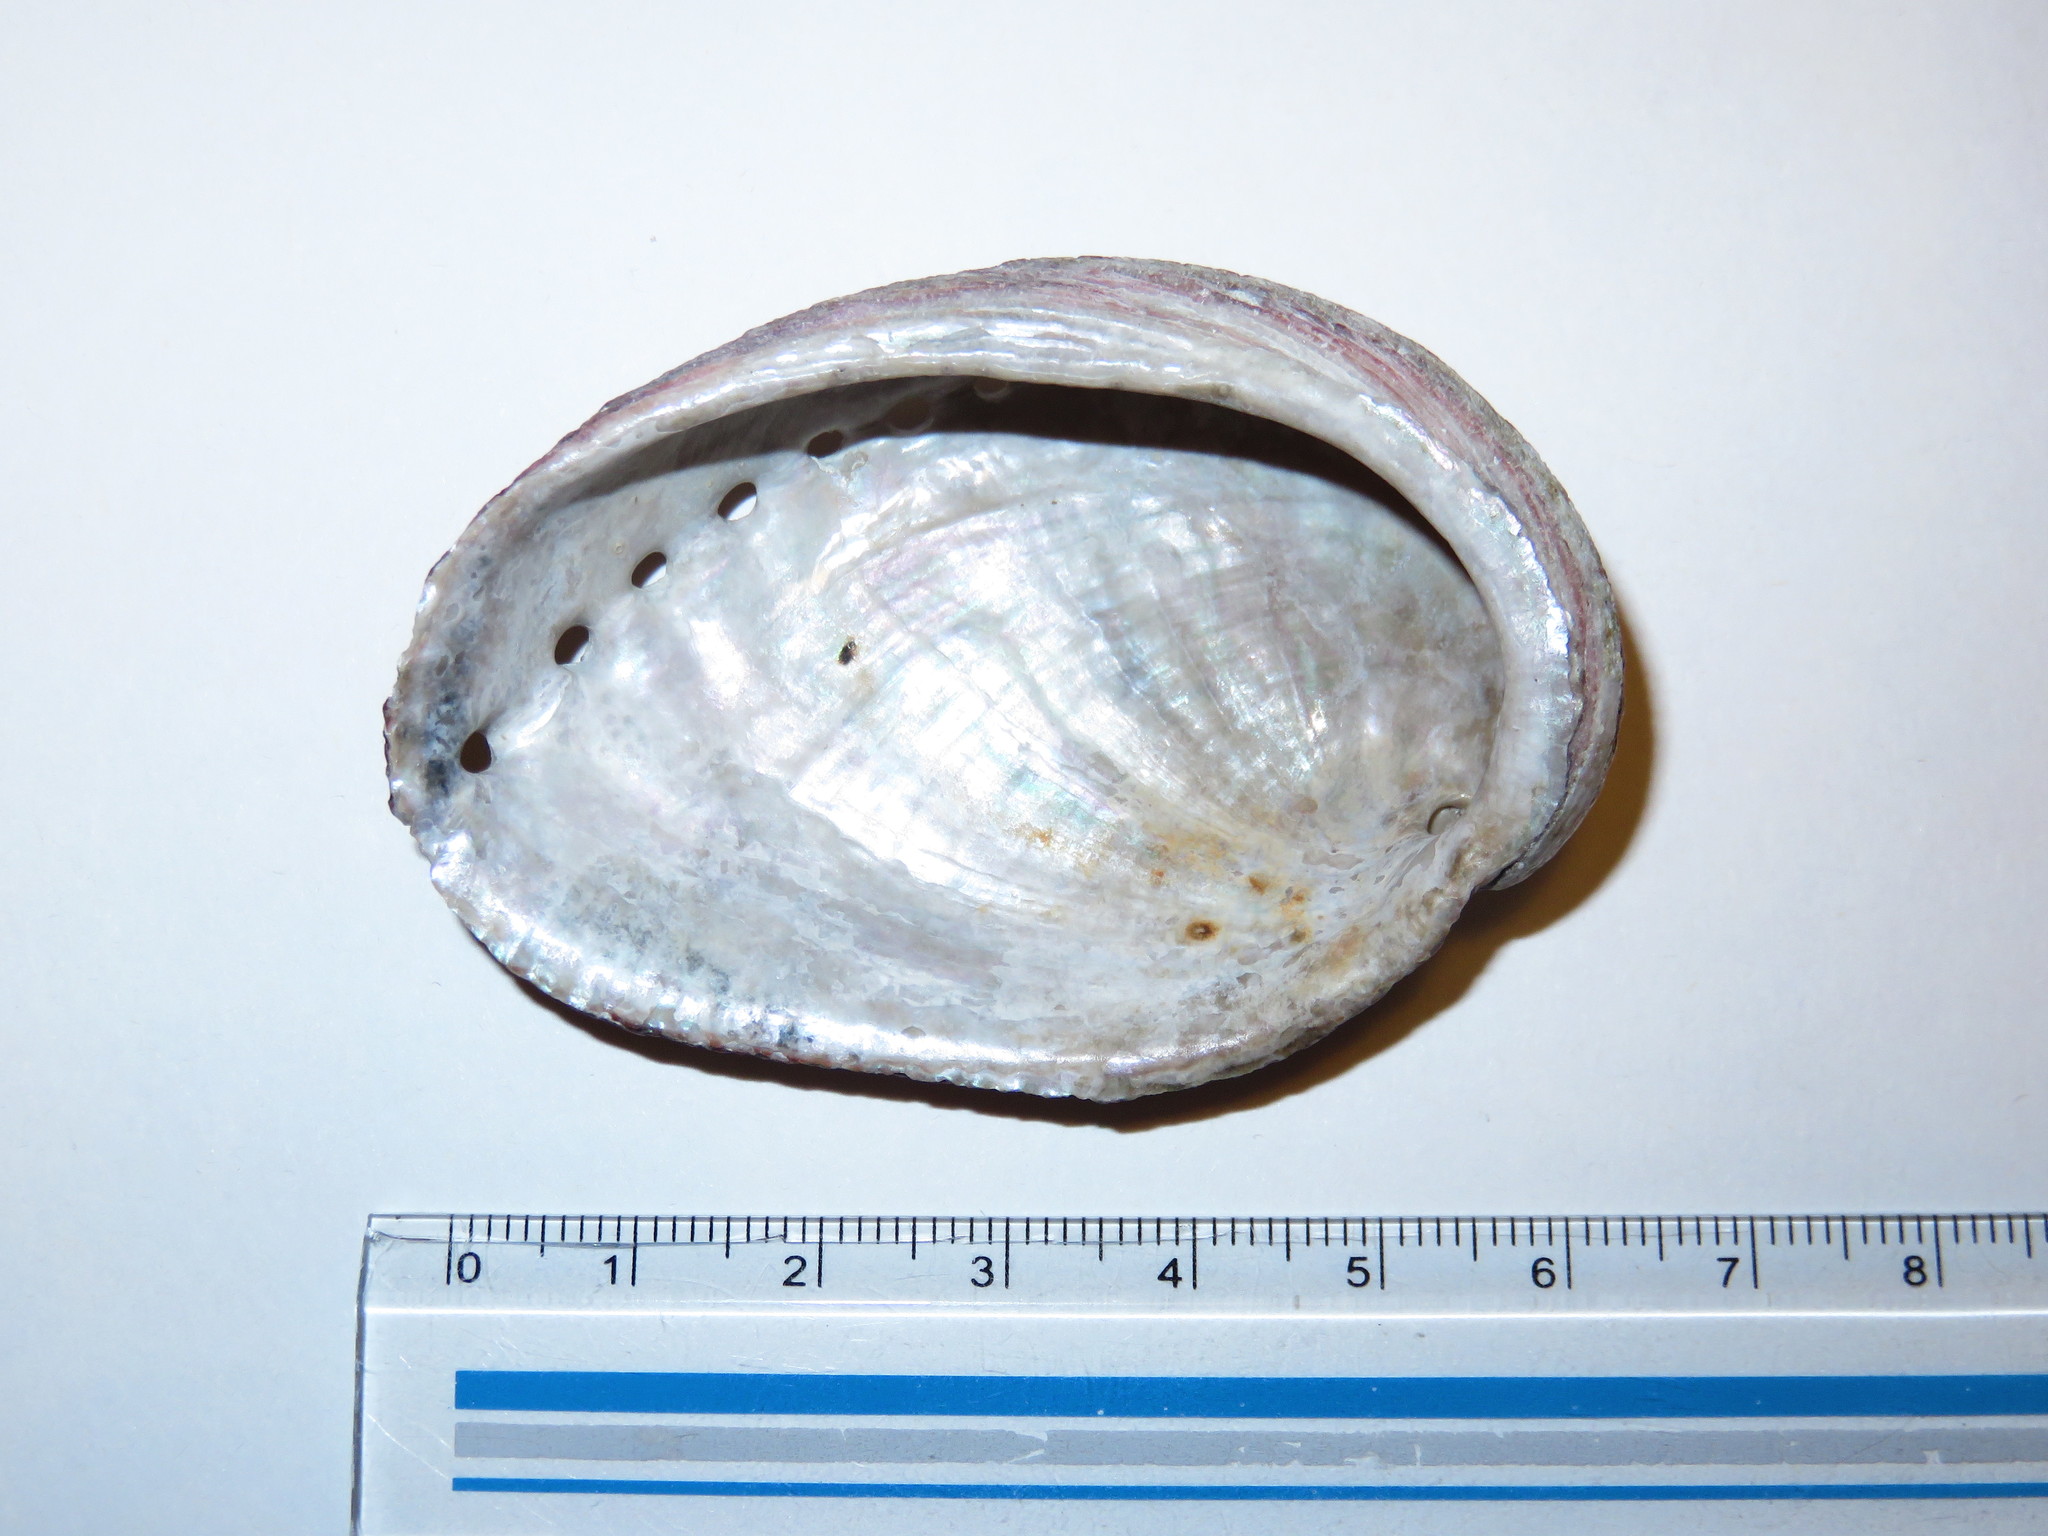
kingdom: Animalia
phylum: Mollusca
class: Gastropoda
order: Lepetellida
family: Haliotidae
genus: Haliotis
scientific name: Haliotis diversicolor
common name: Multicolored abalone
